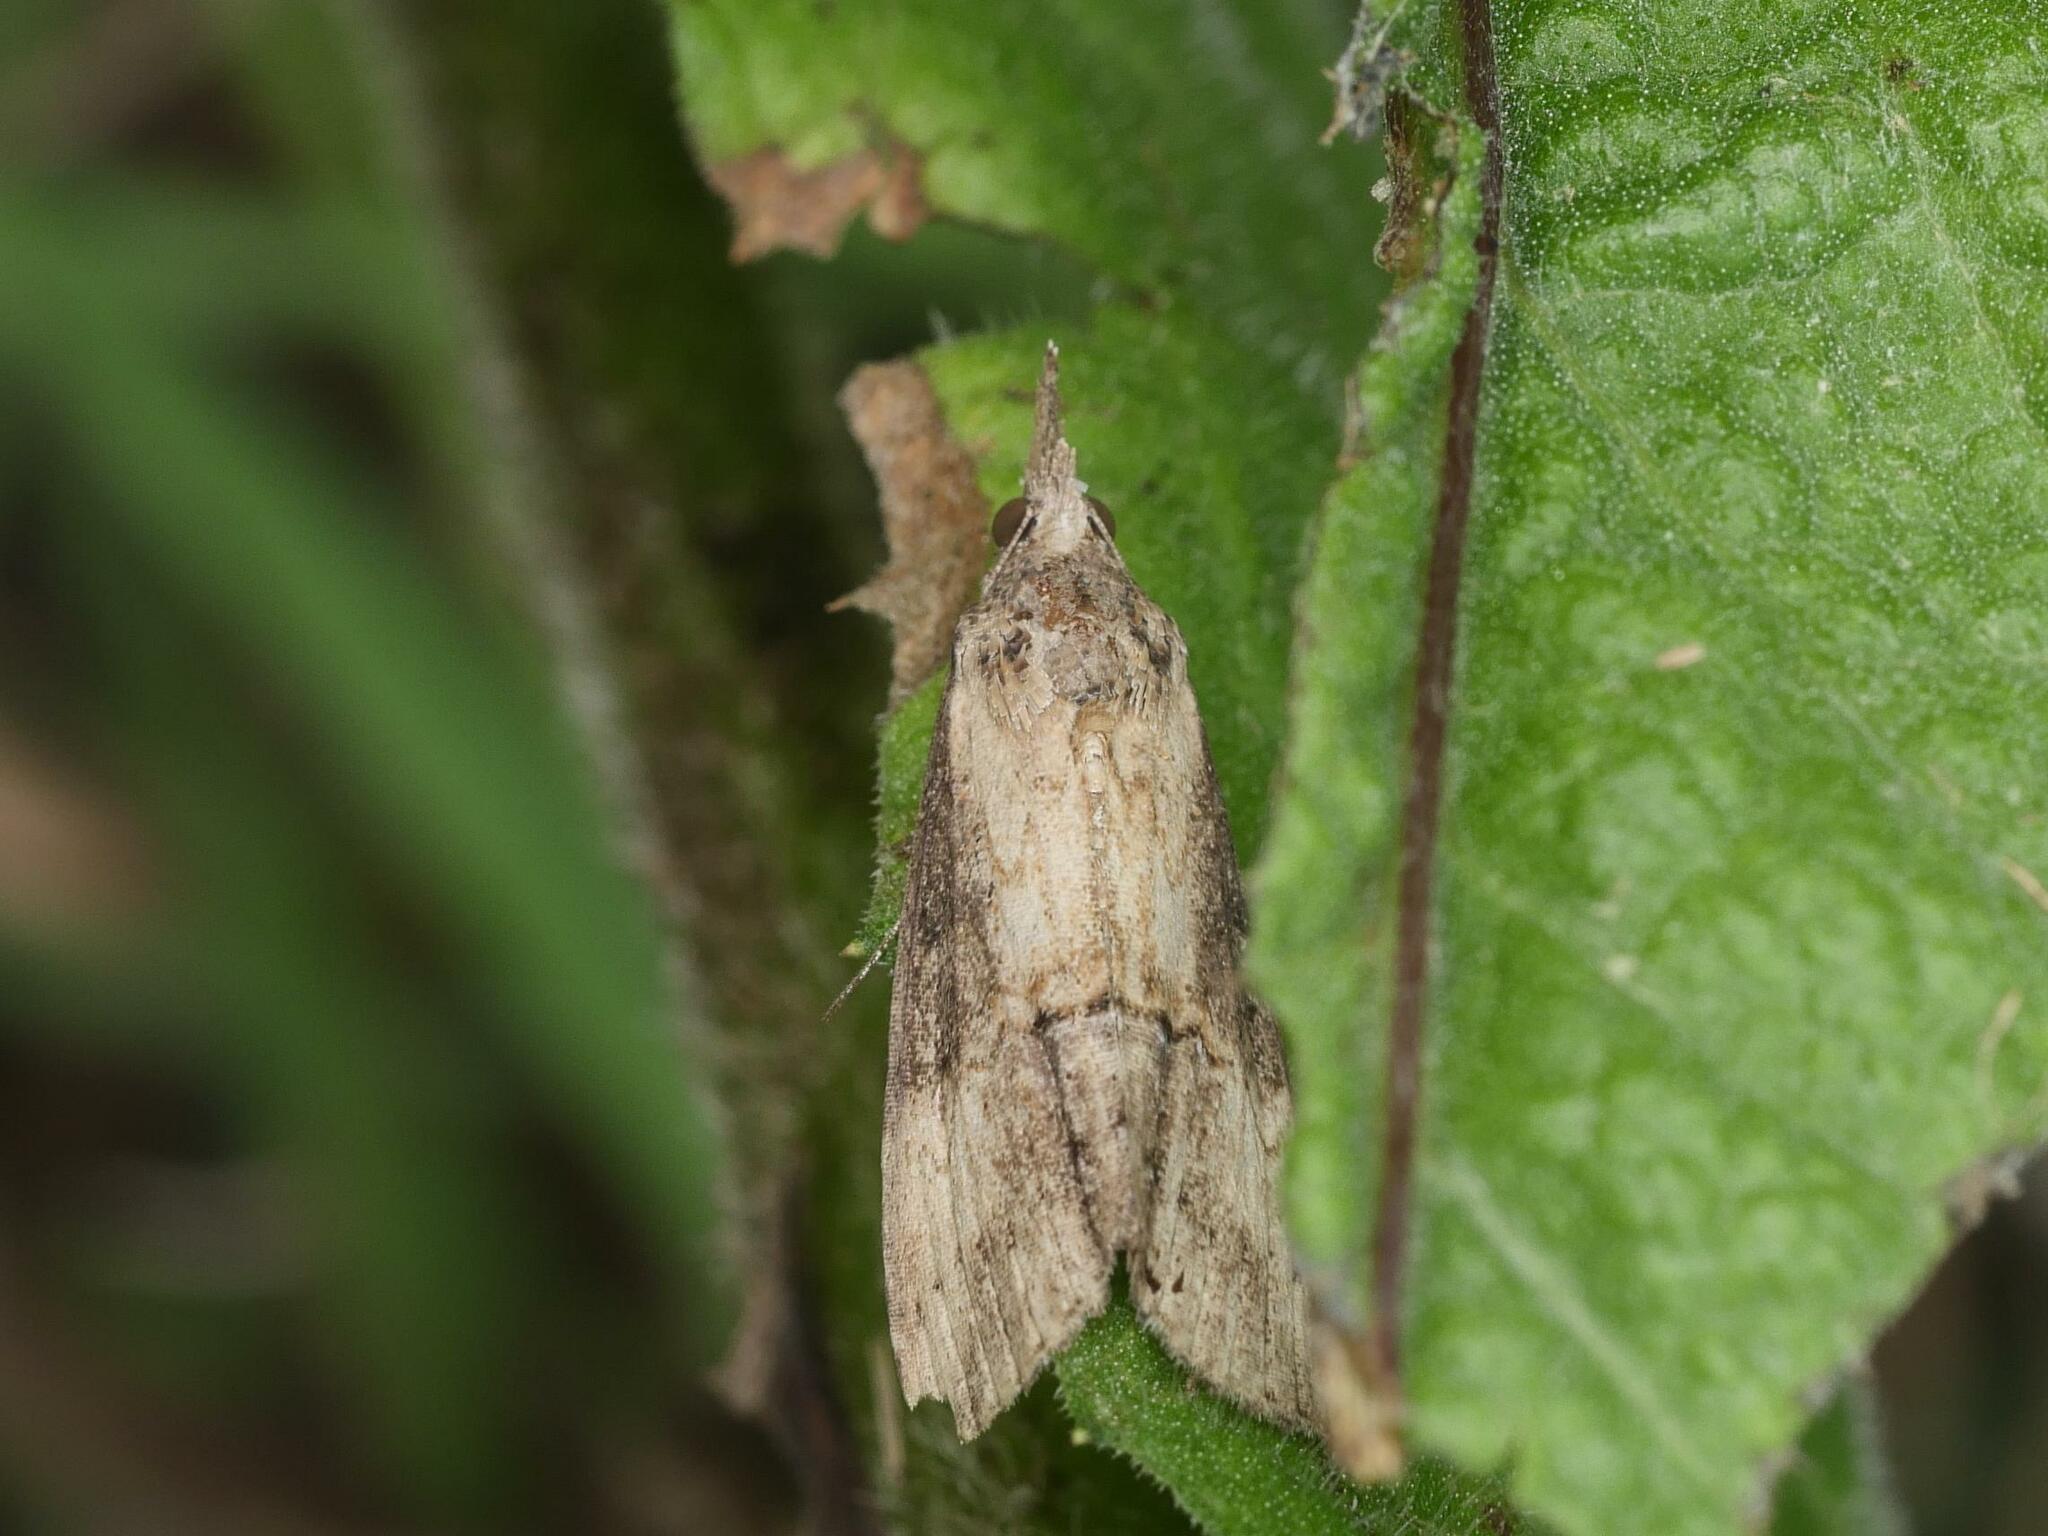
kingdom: Animalia
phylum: Arthropoda
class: Insecta
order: Lepidoptera
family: Erebidae
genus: Hypena
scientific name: Hypena scabra
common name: Green cloverworm
